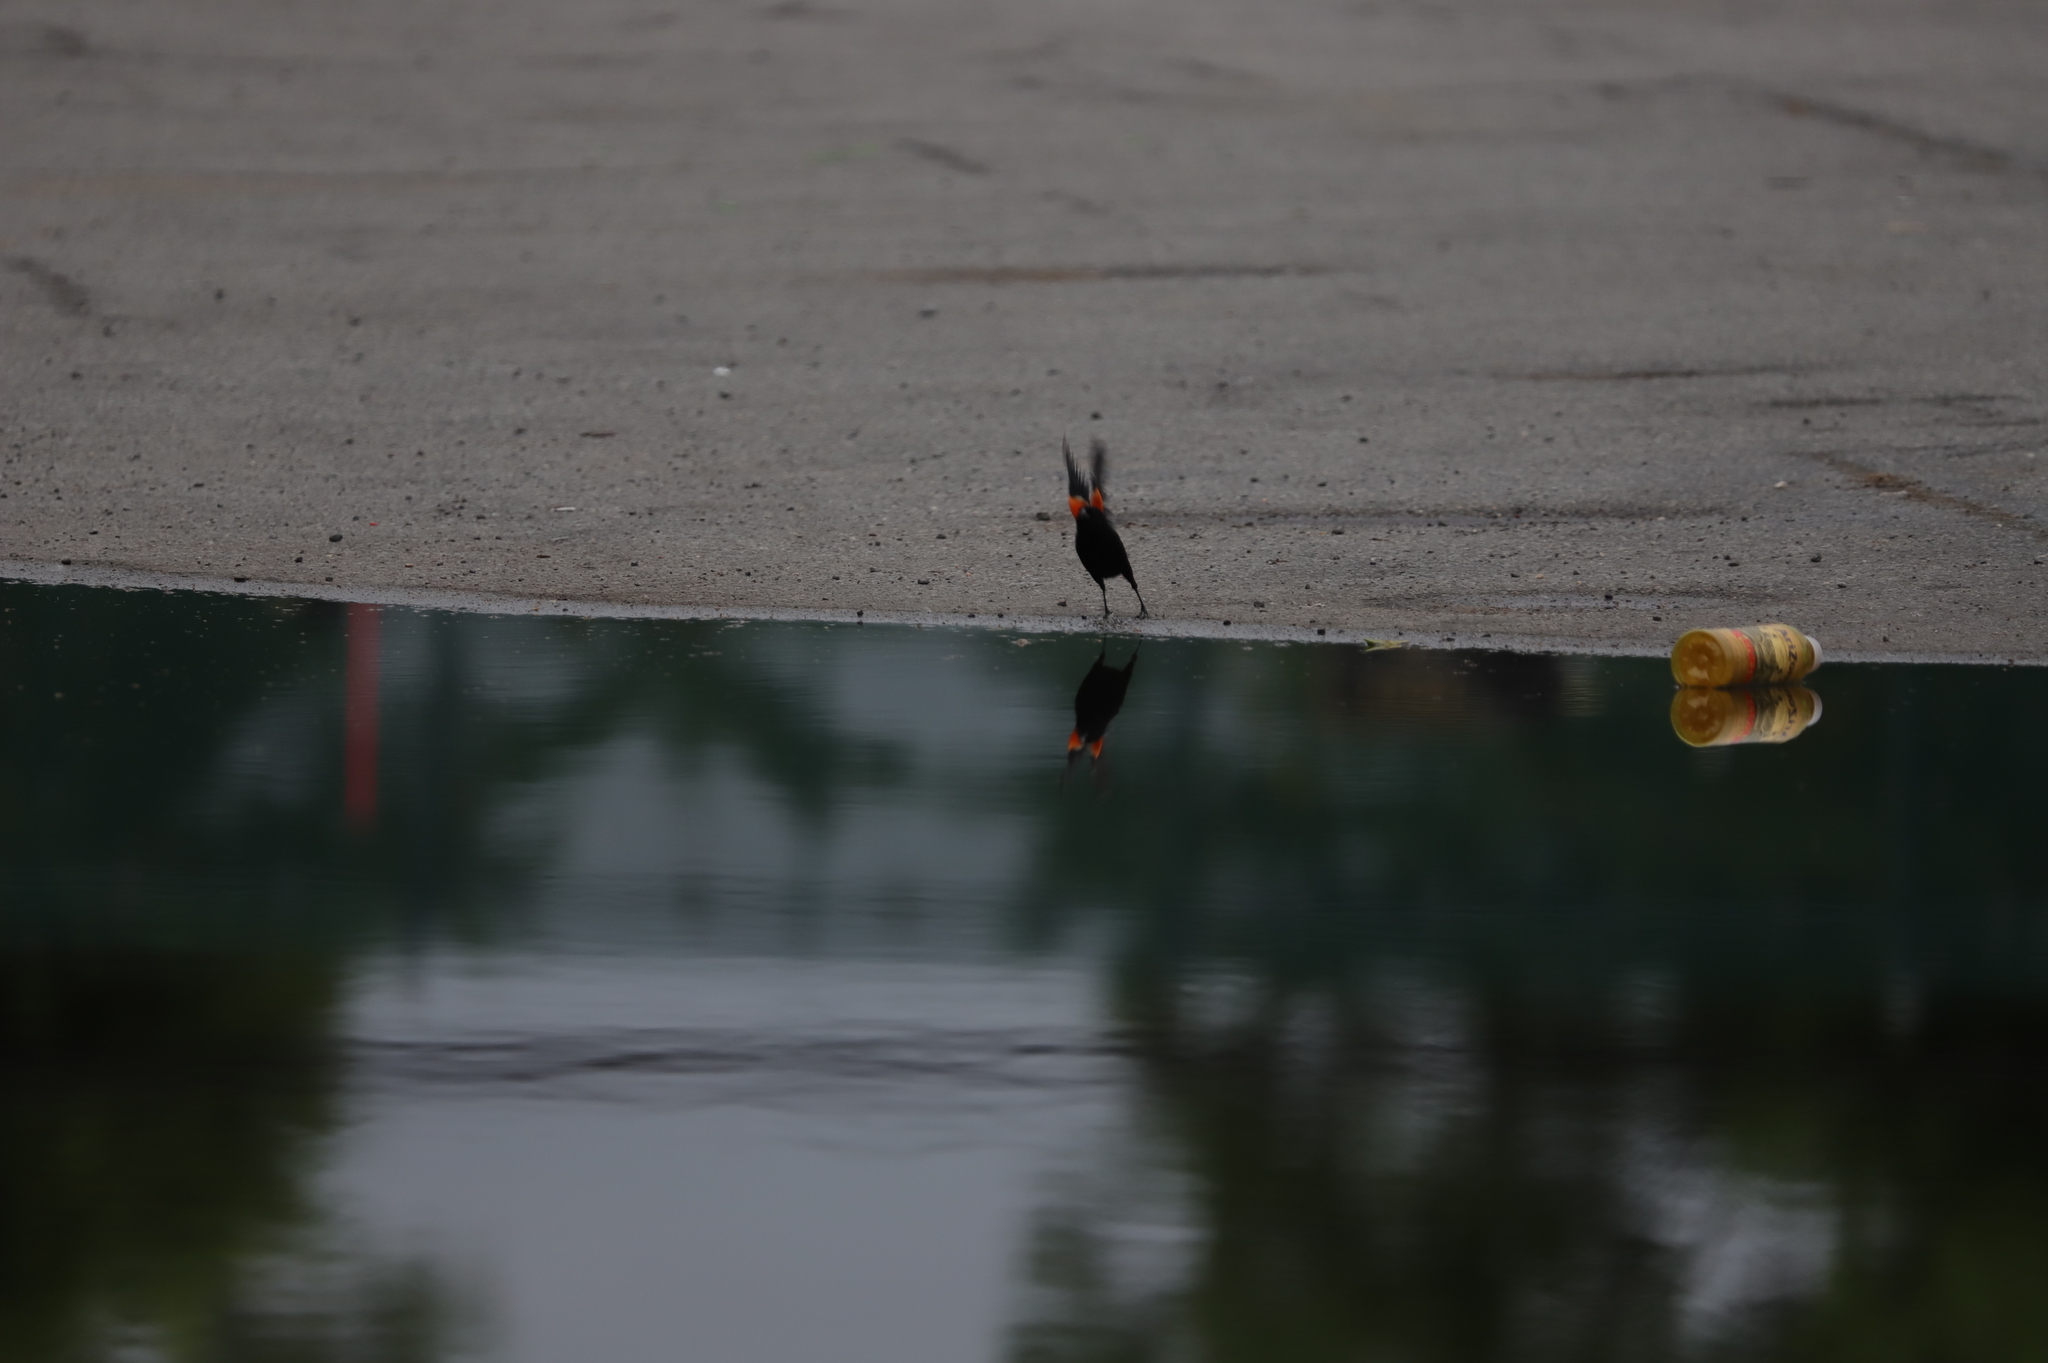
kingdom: Animalia
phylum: Chordata
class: Aves
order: Passeriformes
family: Icteridae
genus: Agelaius
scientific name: Agelaius phoeniceus
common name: Red-winged blackbird
